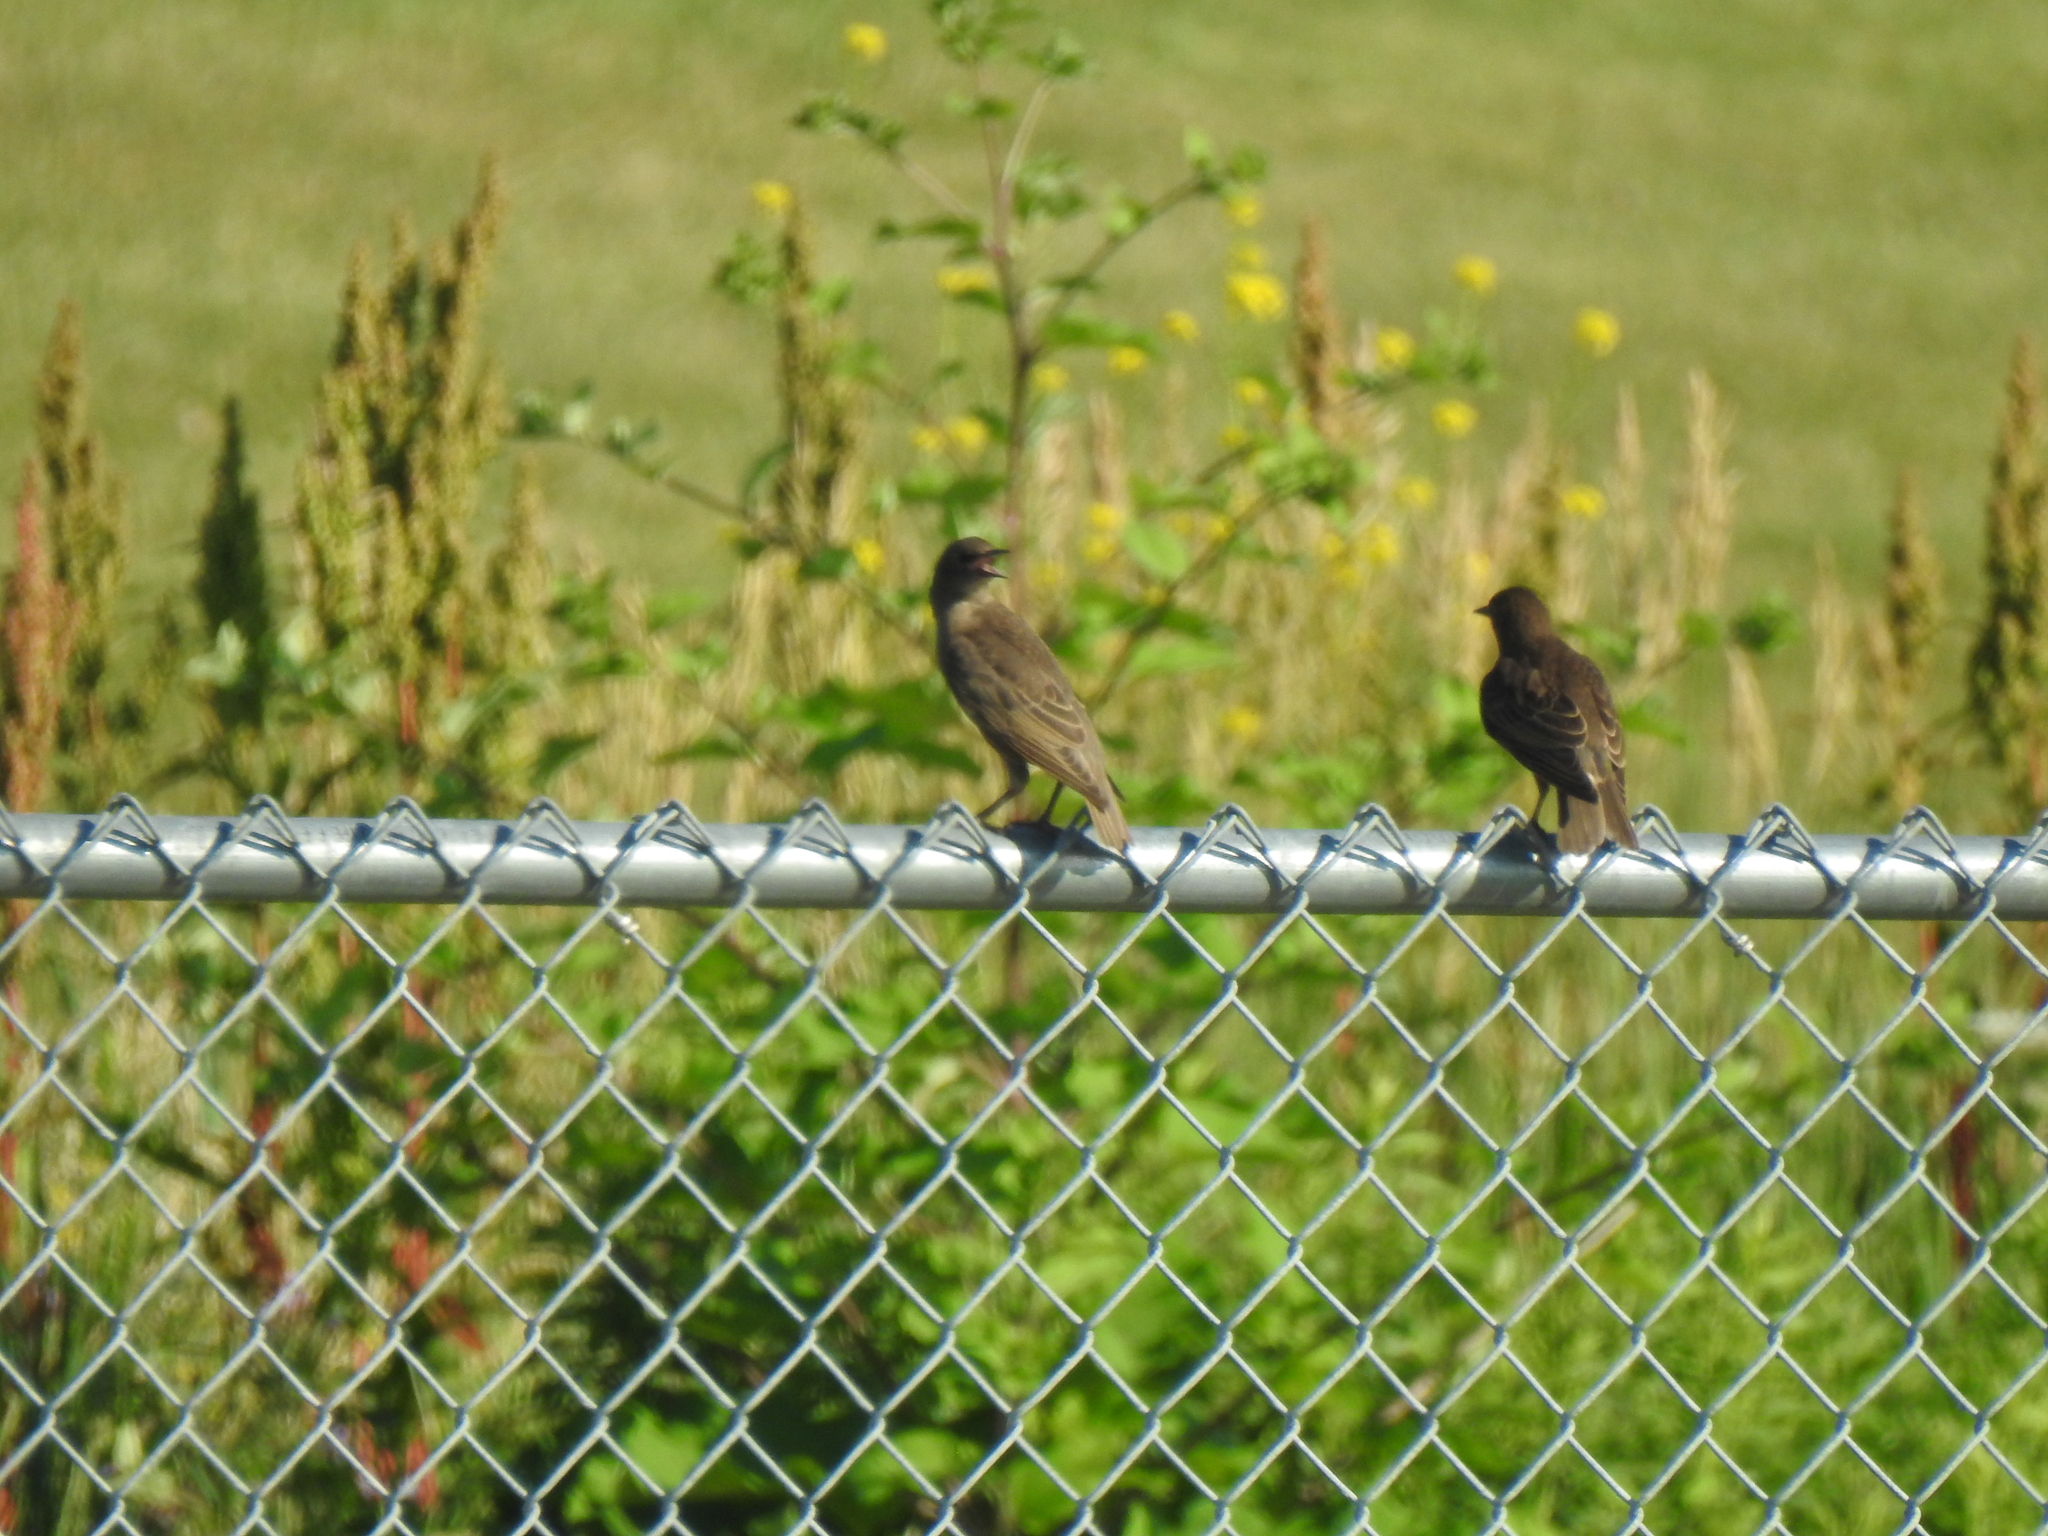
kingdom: Animalia
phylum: Chordata
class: Aves
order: Passeriformes
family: Sturnidae
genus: Sturnus
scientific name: Sturnus vulgaris
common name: Common starling
